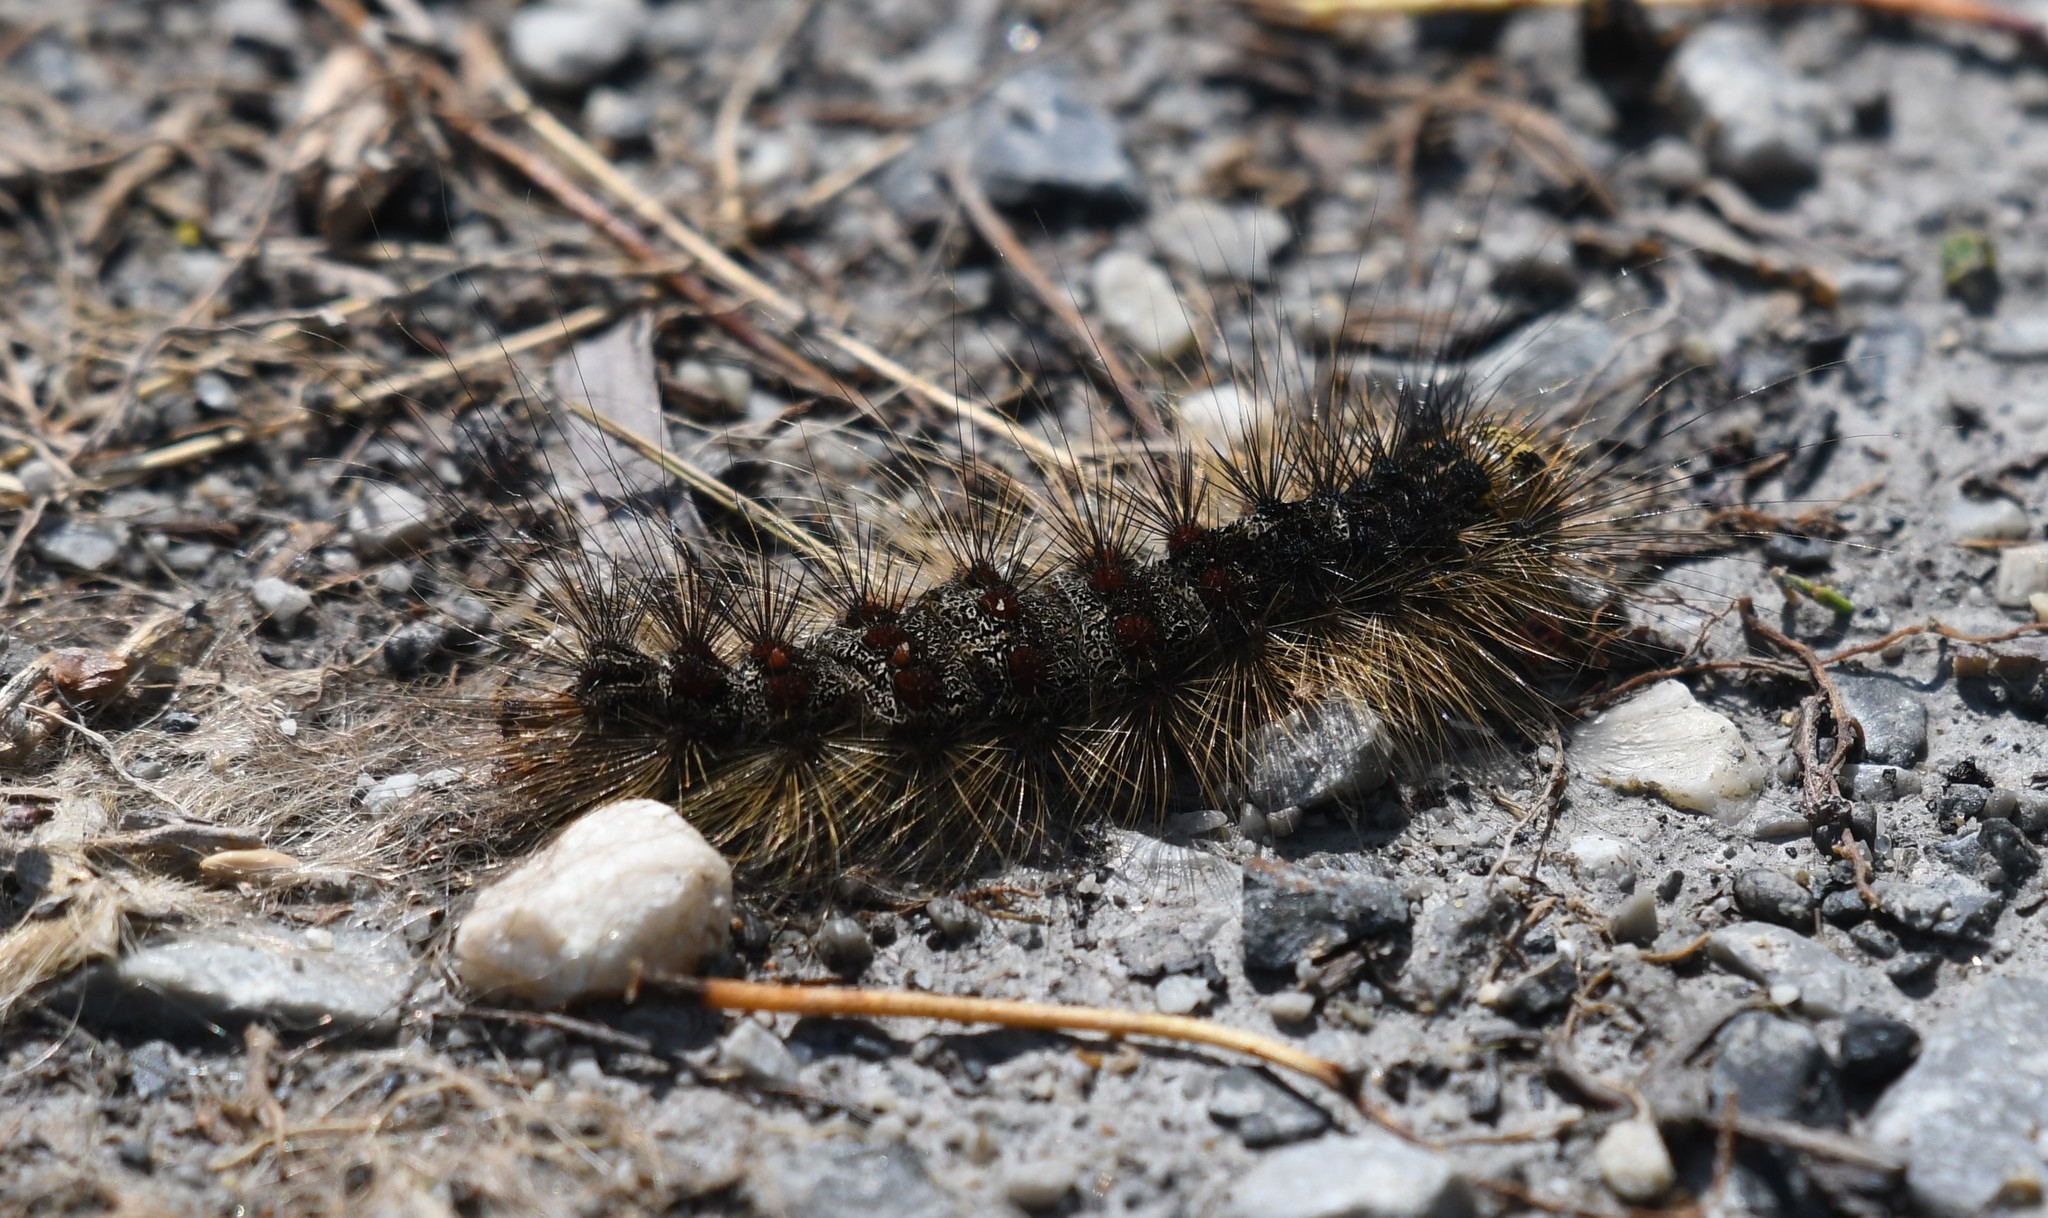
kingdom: Animalia
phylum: Arthropoda
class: Insecta
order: Lepidoptera
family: Erebidae
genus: Lymantria
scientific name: Lymantria dispar
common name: Gypsy moth
